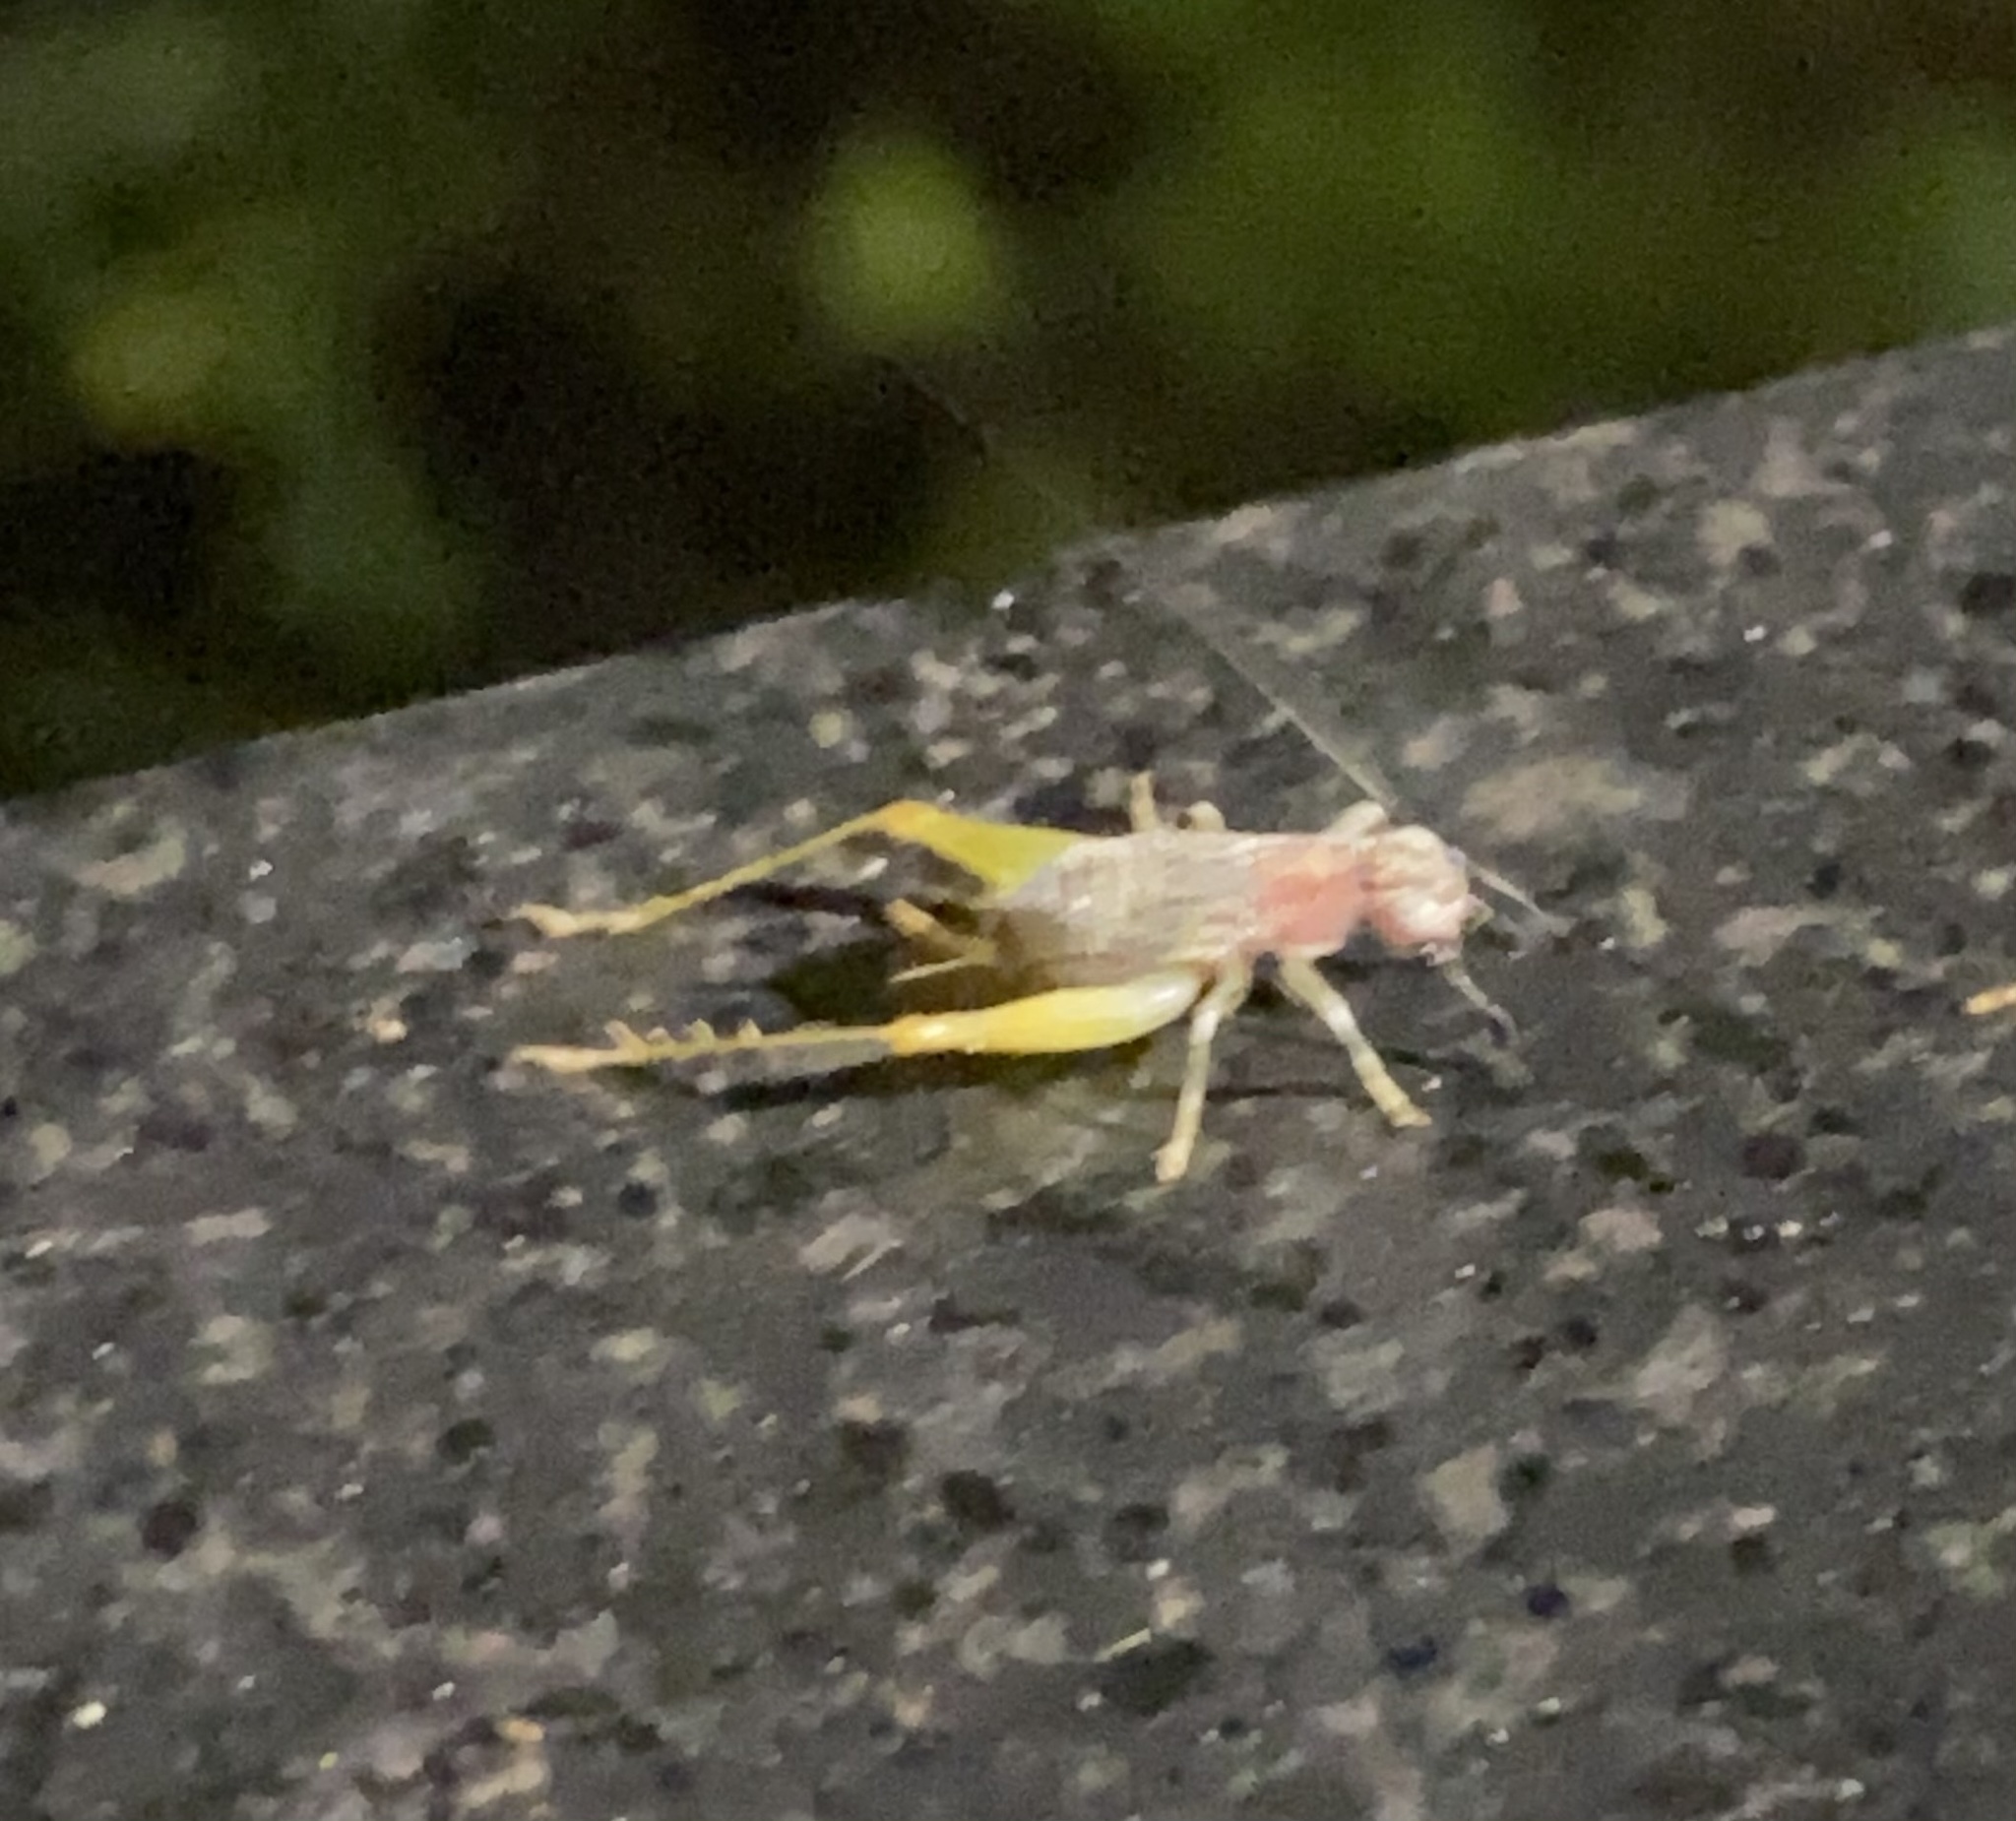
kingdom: Animalia
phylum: Arthropoda
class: Insecta
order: Orthoptera
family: Trigonidiidae
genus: Phyllopalpus
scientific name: Phyllopalpus pulchellus
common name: Handsome trig
